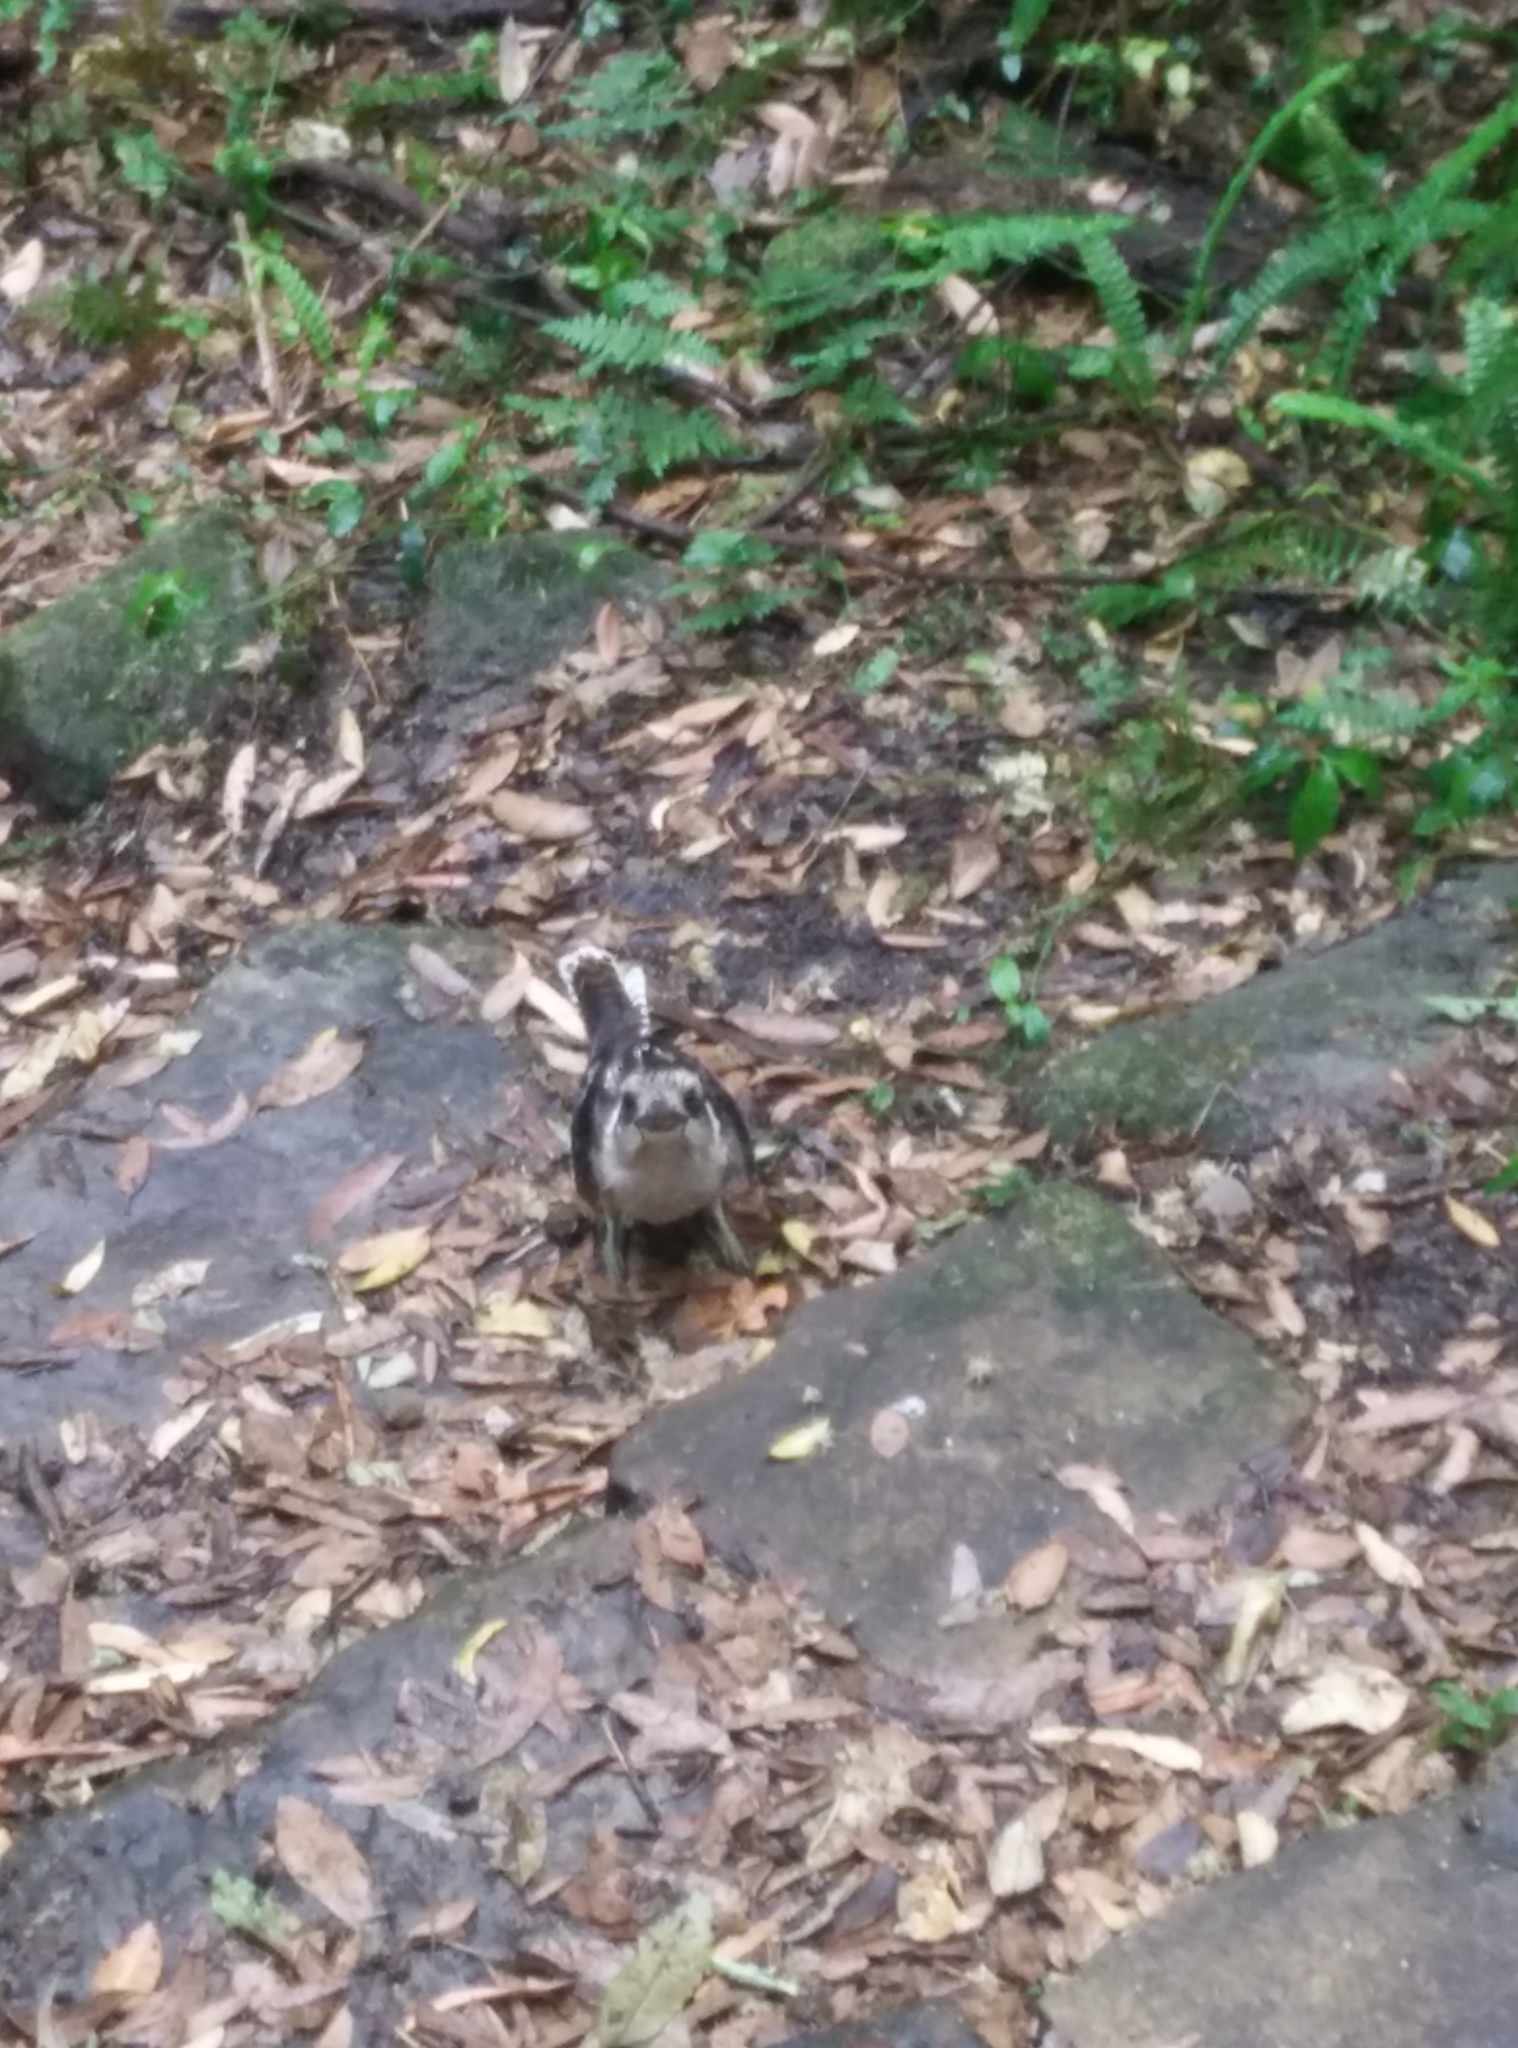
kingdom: Animalia
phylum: Chordata
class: Aves
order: Coraciiformes
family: Alcedinidae
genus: Dacelo
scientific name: Dacelo novaeguineae
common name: Laughing kookaburra
